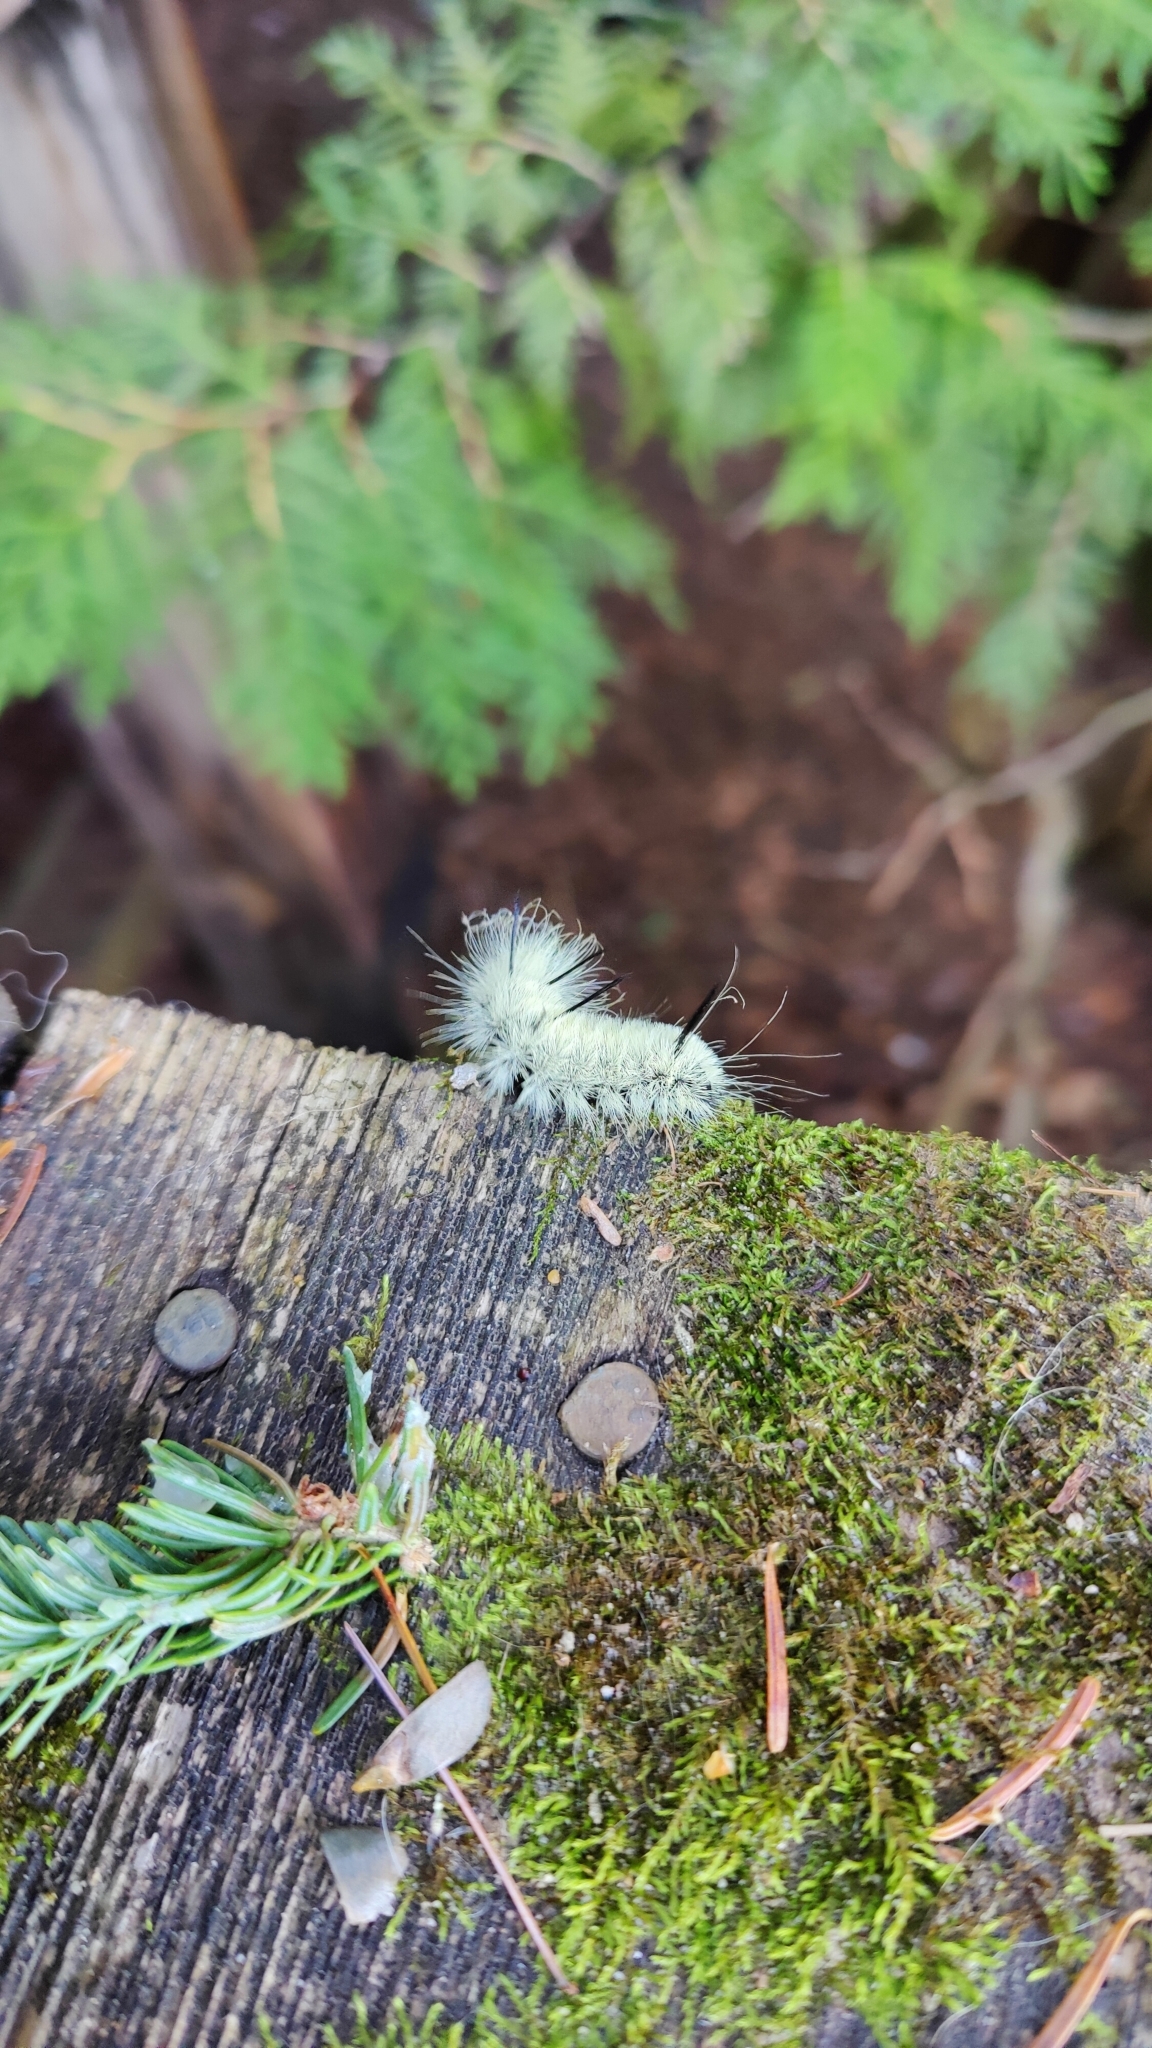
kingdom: Animalia
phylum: Arthropoda
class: Insecta
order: Lepidoptera
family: Noctuidae
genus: Acronicta
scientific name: Acronicta americana
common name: American dagger
